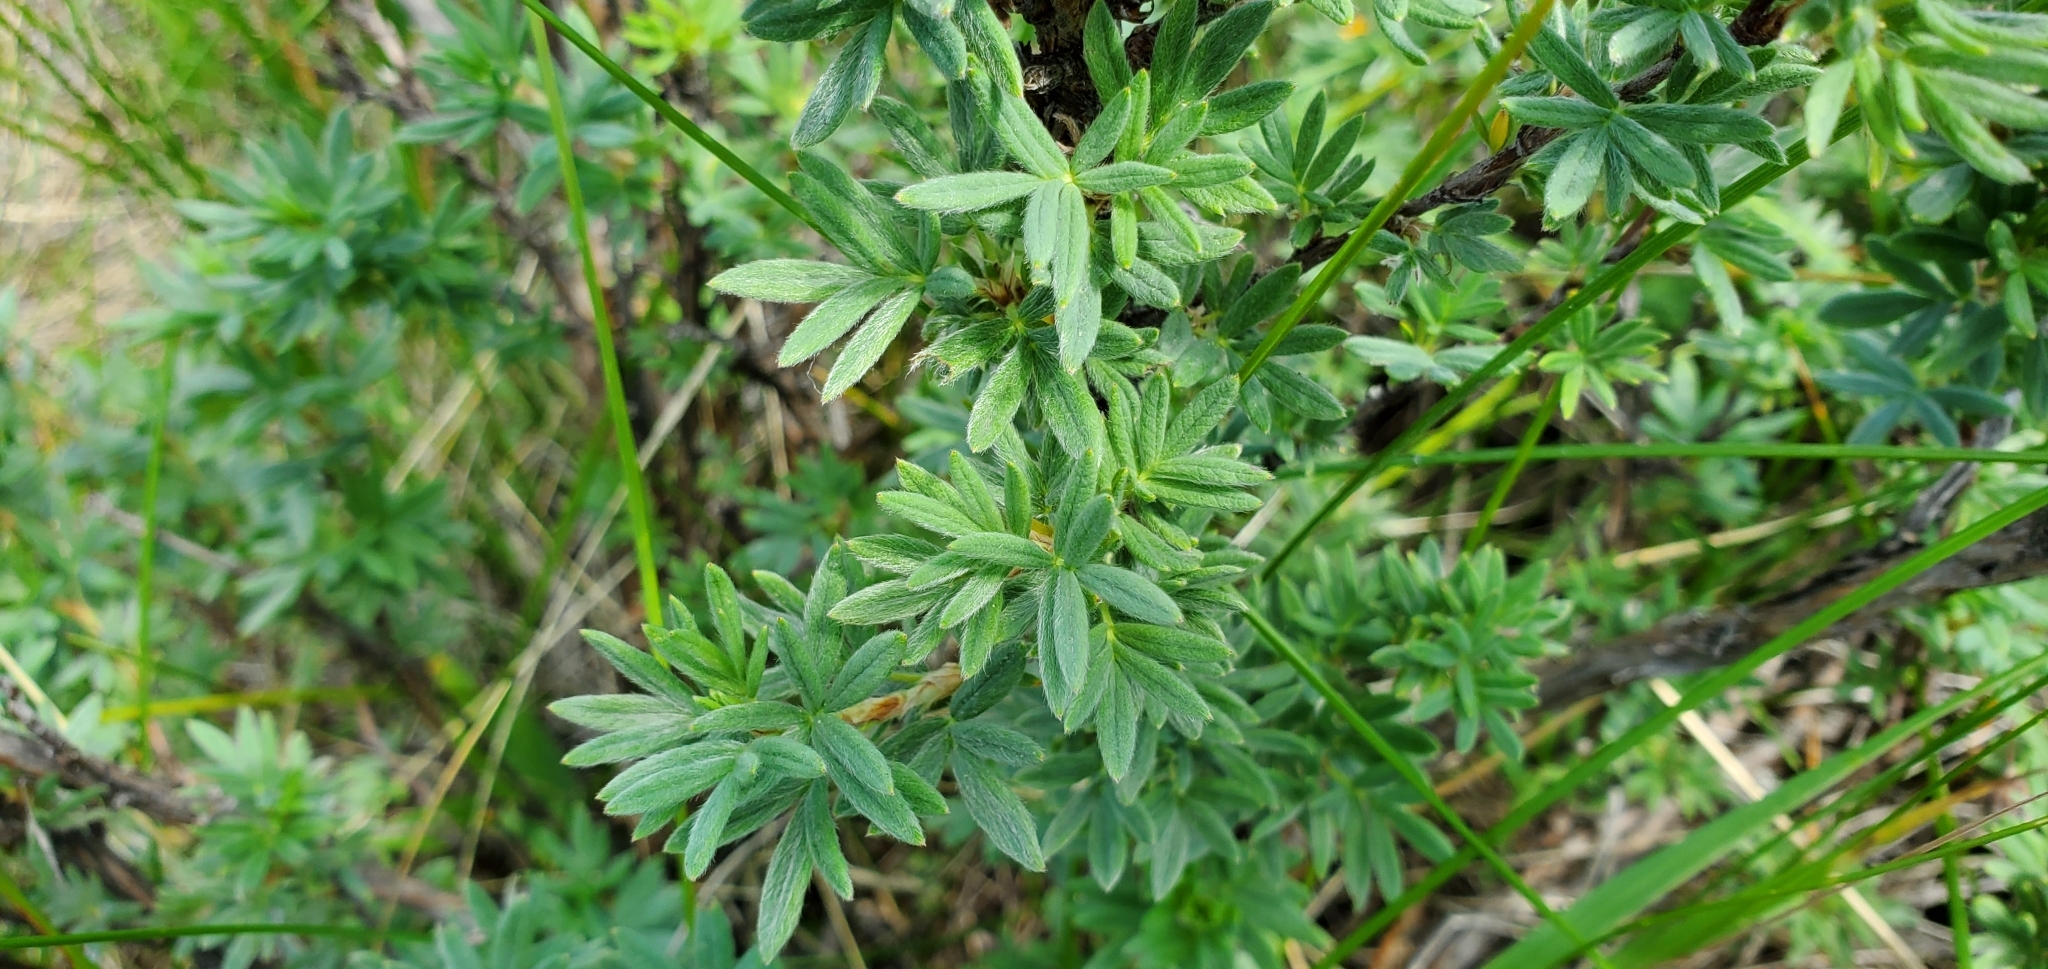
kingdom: Plantae
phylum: Tracheophyta
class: Magnoliopsida
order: Rosales
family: Rosaceae
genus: Dasiphora
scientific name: Dasiphora fruticosa
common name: Shrubby cinquefoil
